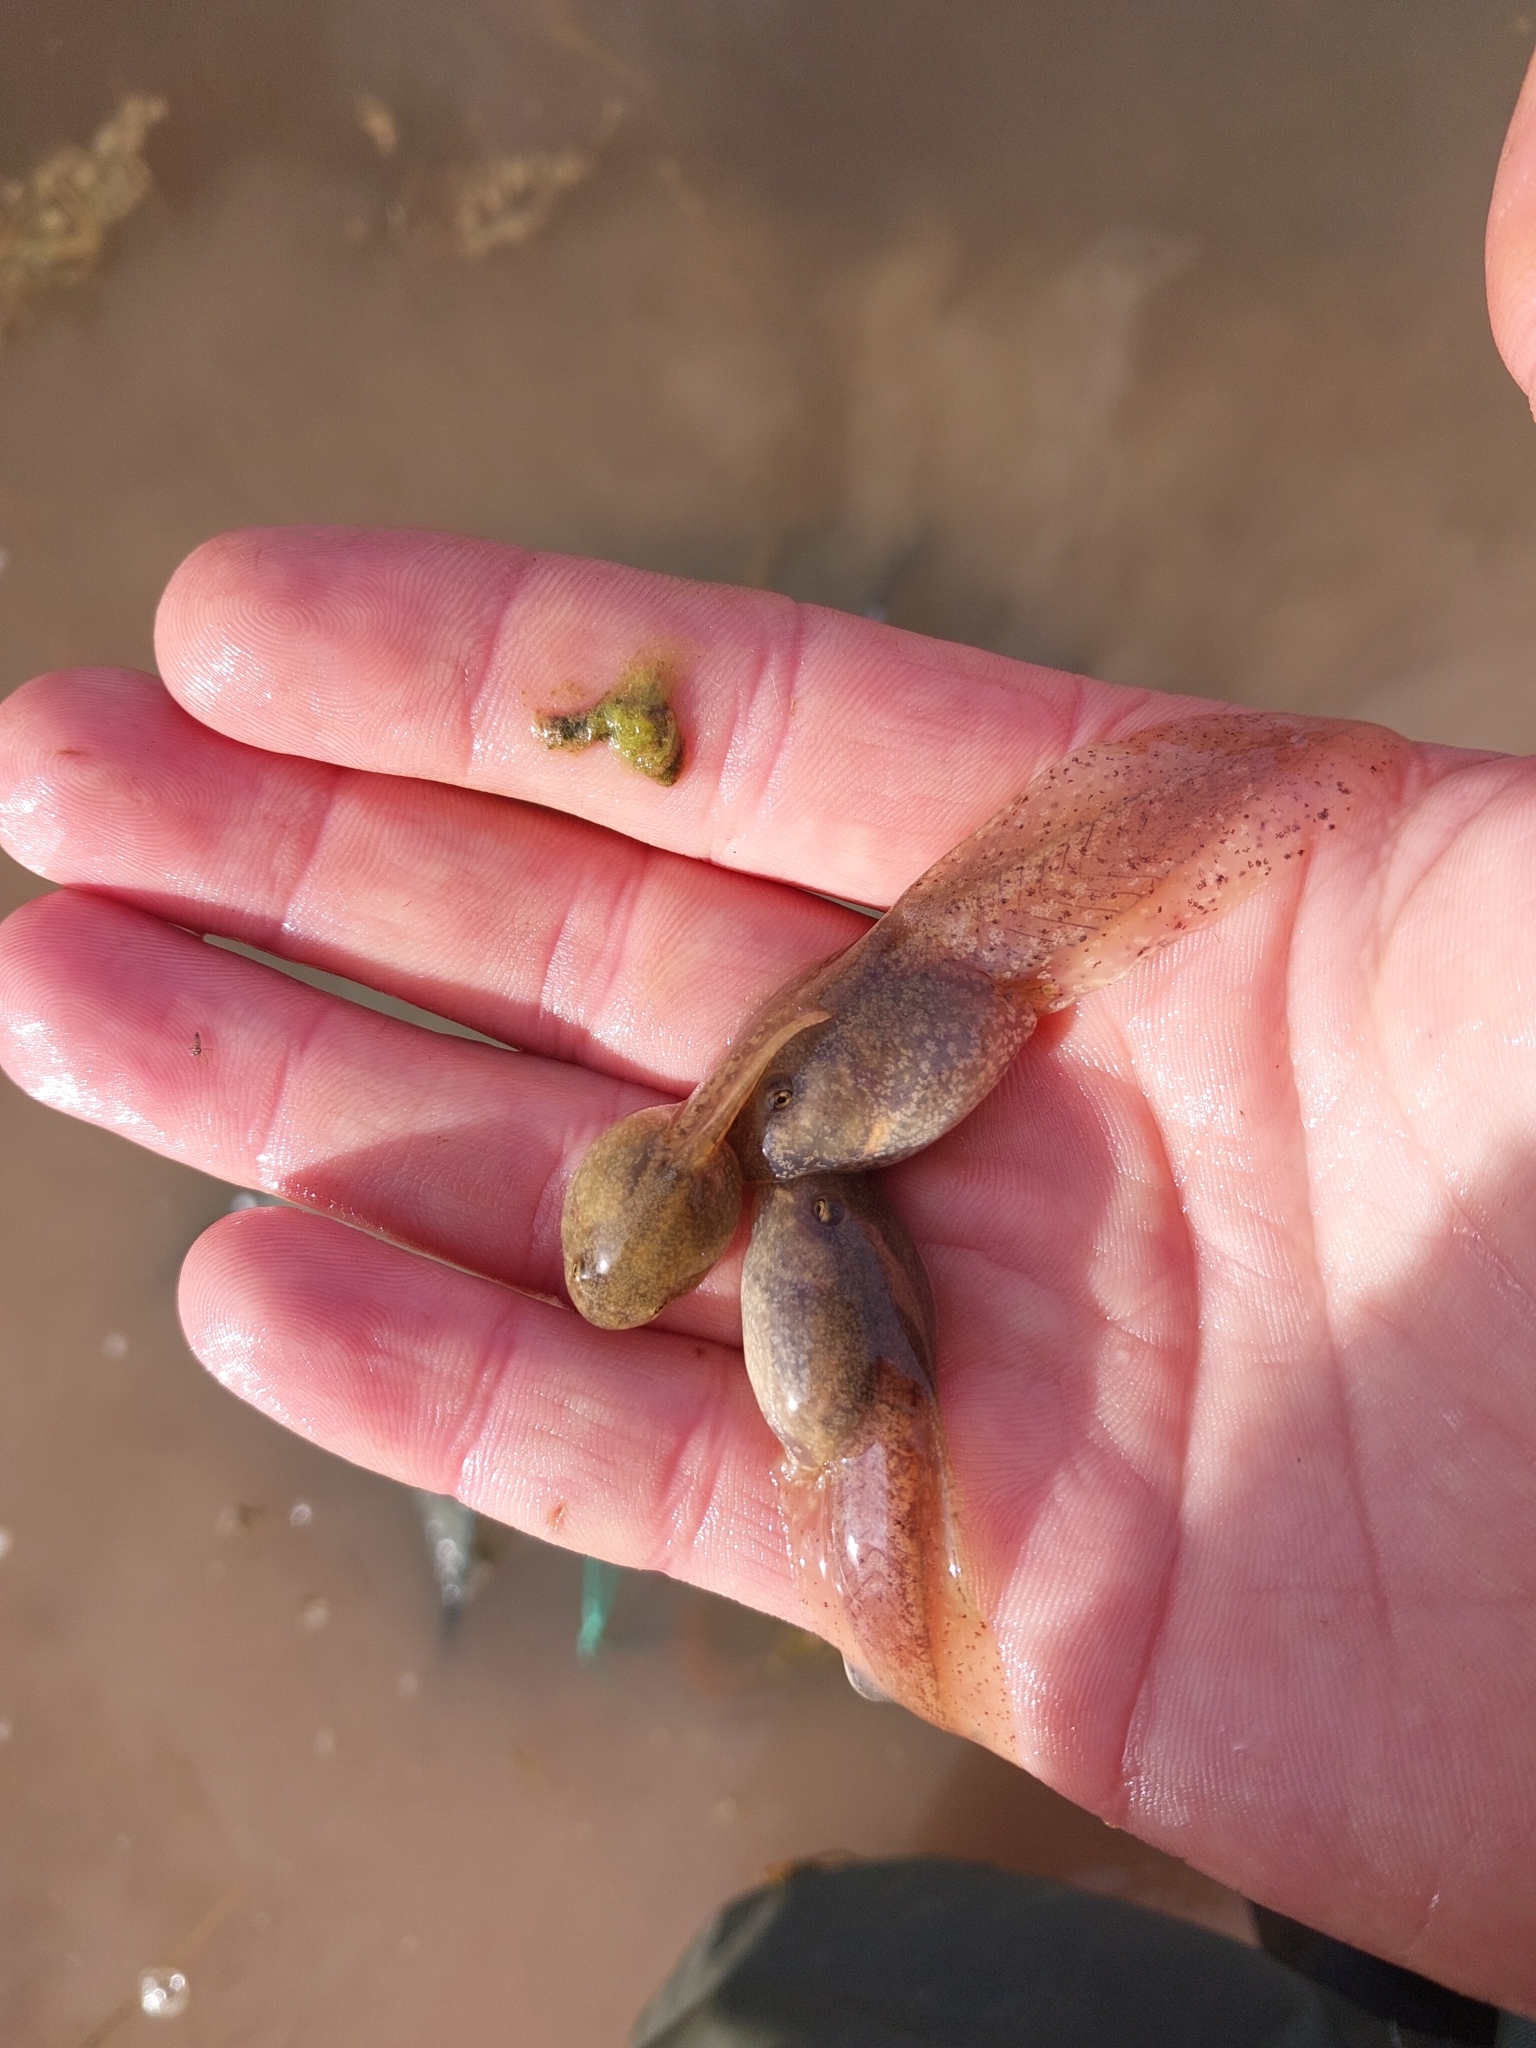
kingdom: Animalia
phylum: Chordata
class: Amphibia
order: Anura
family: Alytidae
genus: Alytes
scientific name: Alytes obstetricans
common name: Midwife toad
